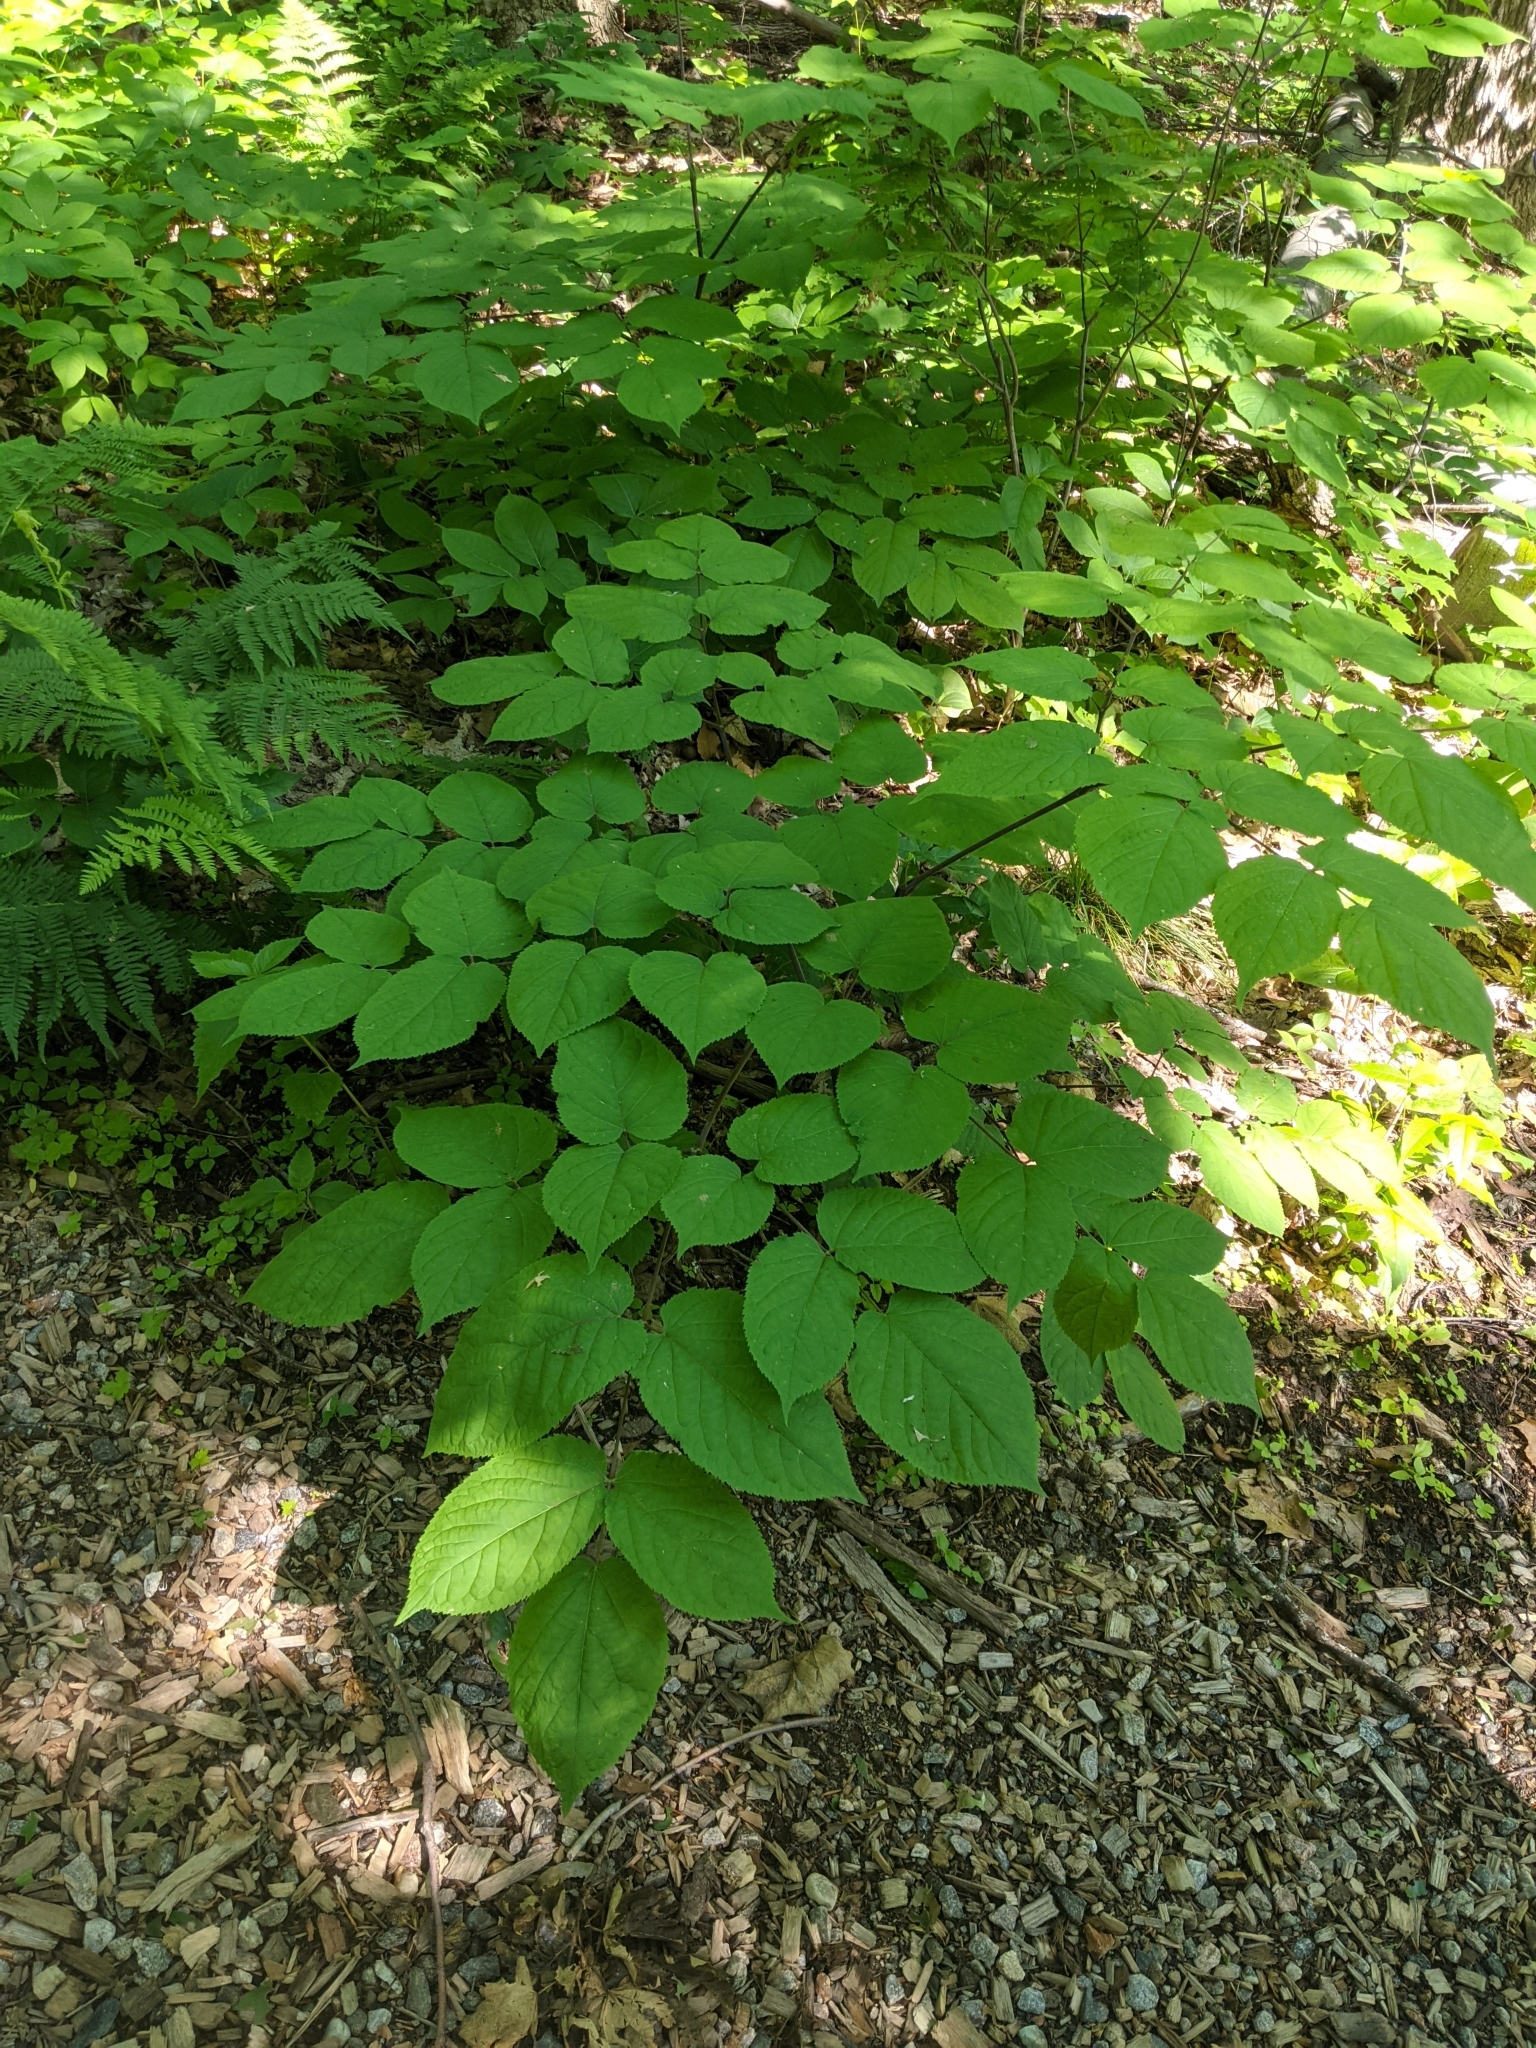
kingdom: Plantae
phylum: Tracheophyta
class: Magnoliopsida
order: Apiales
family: Araliaceae
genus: Aralia
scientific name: Aralia racemosa
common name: American-spikenard
